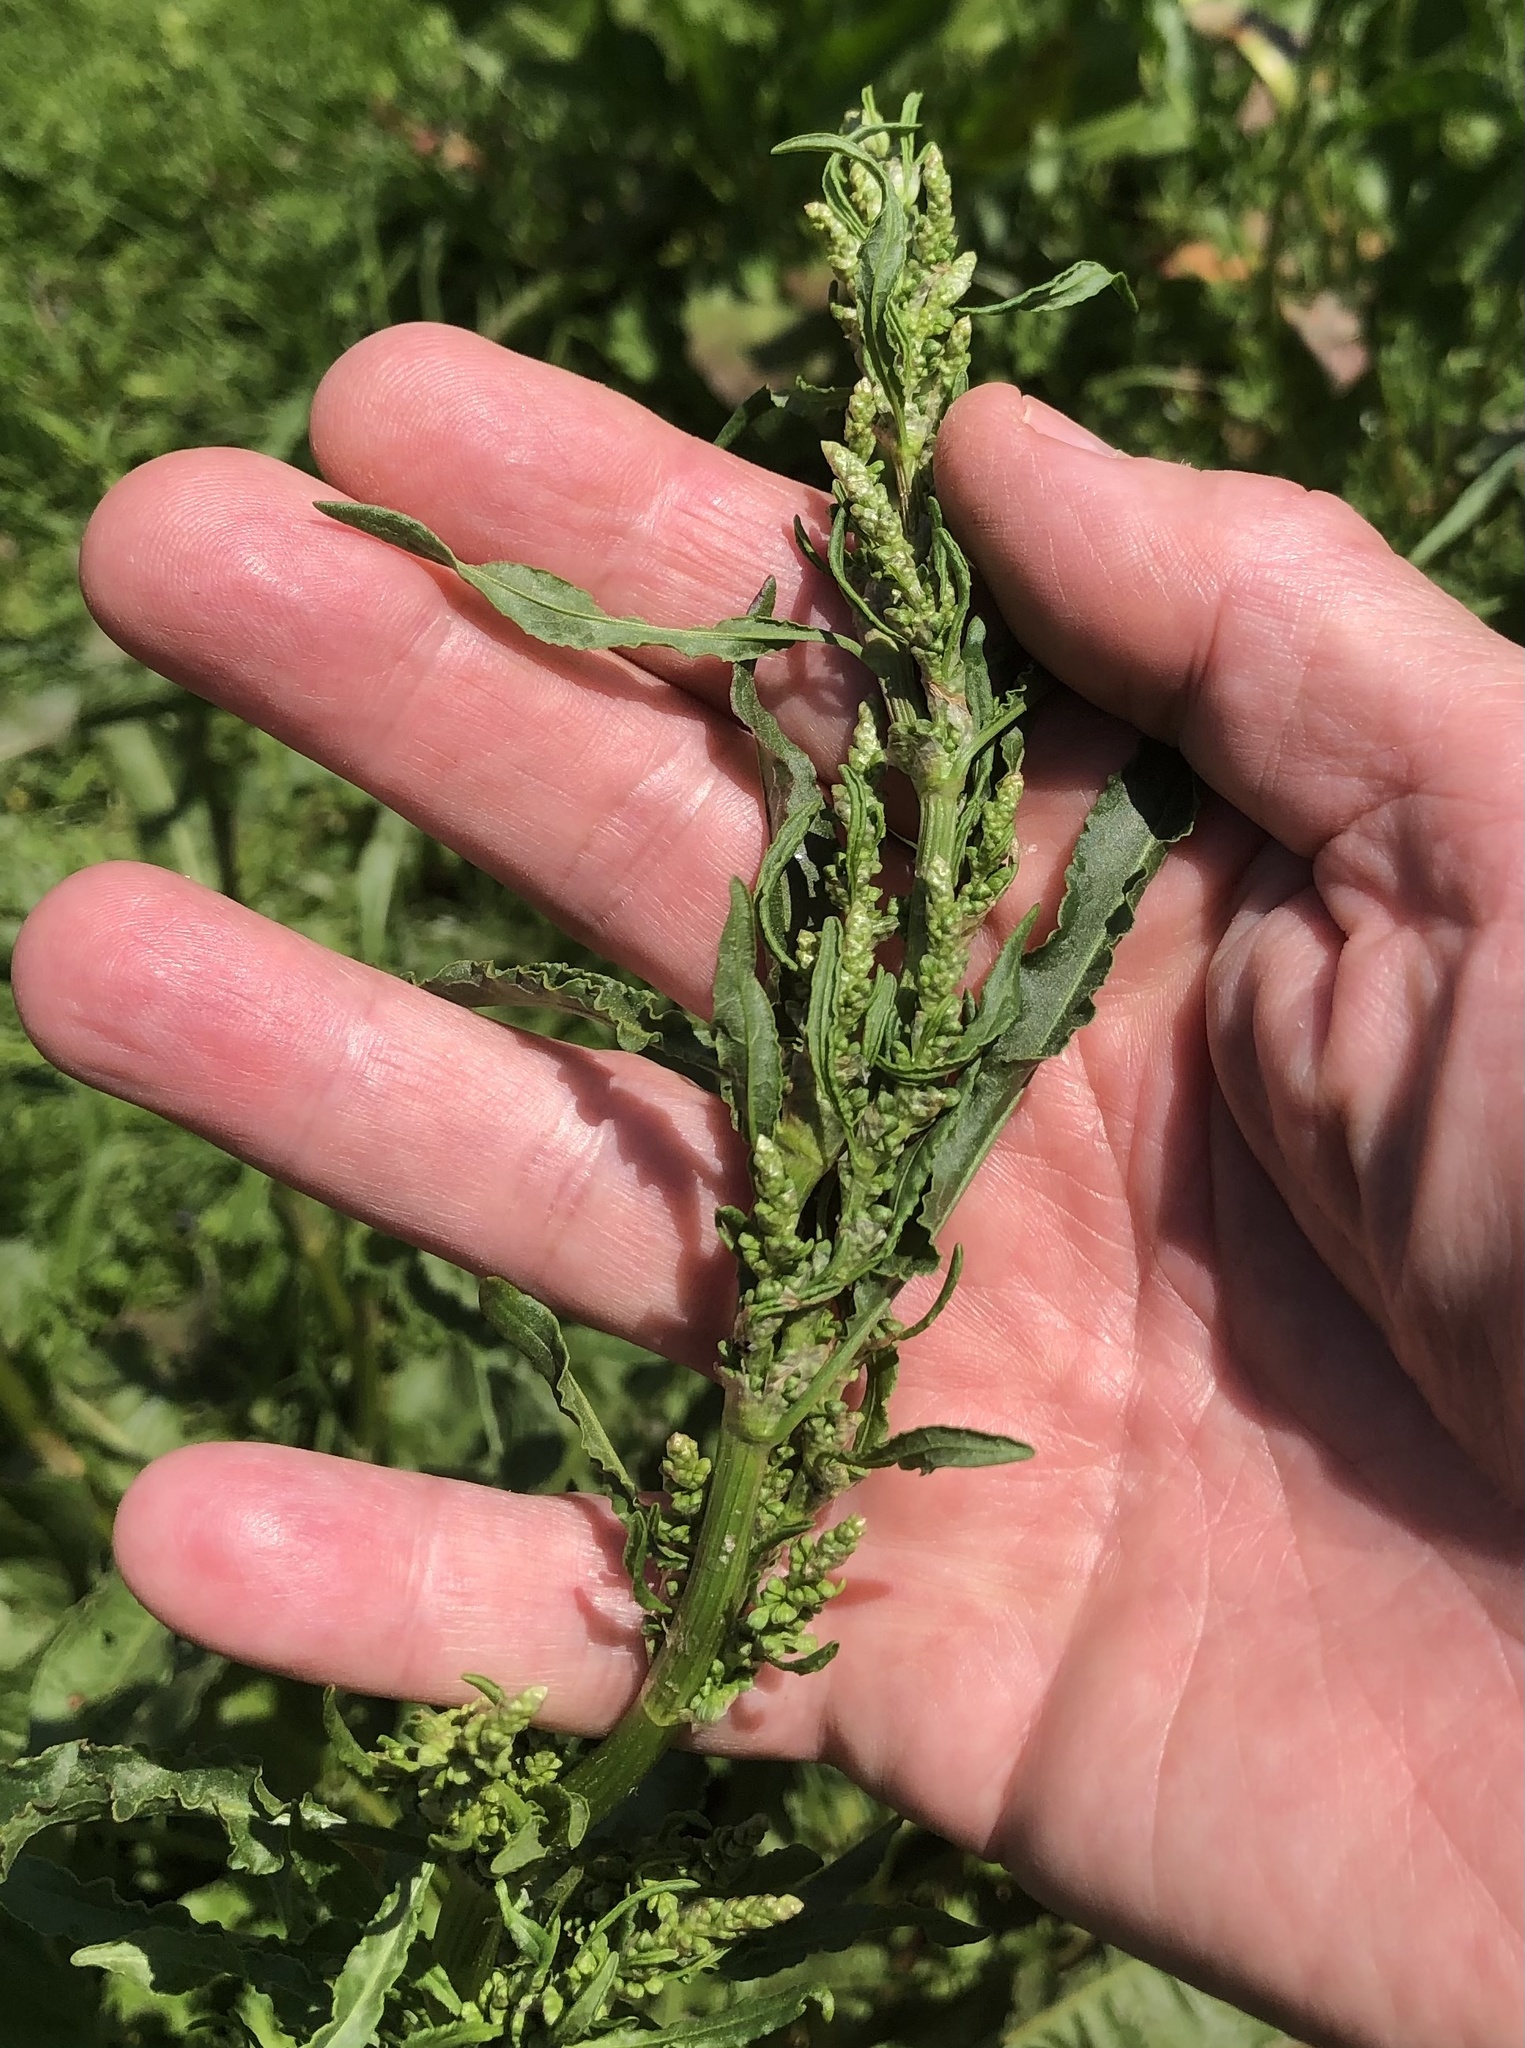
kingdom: Plantae
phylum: Tracheophyta
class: Magnoliopsida
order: Caryophyllales
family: Polygonaceae
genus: Rumex
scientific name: Rumex crispus
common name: Curled dock
